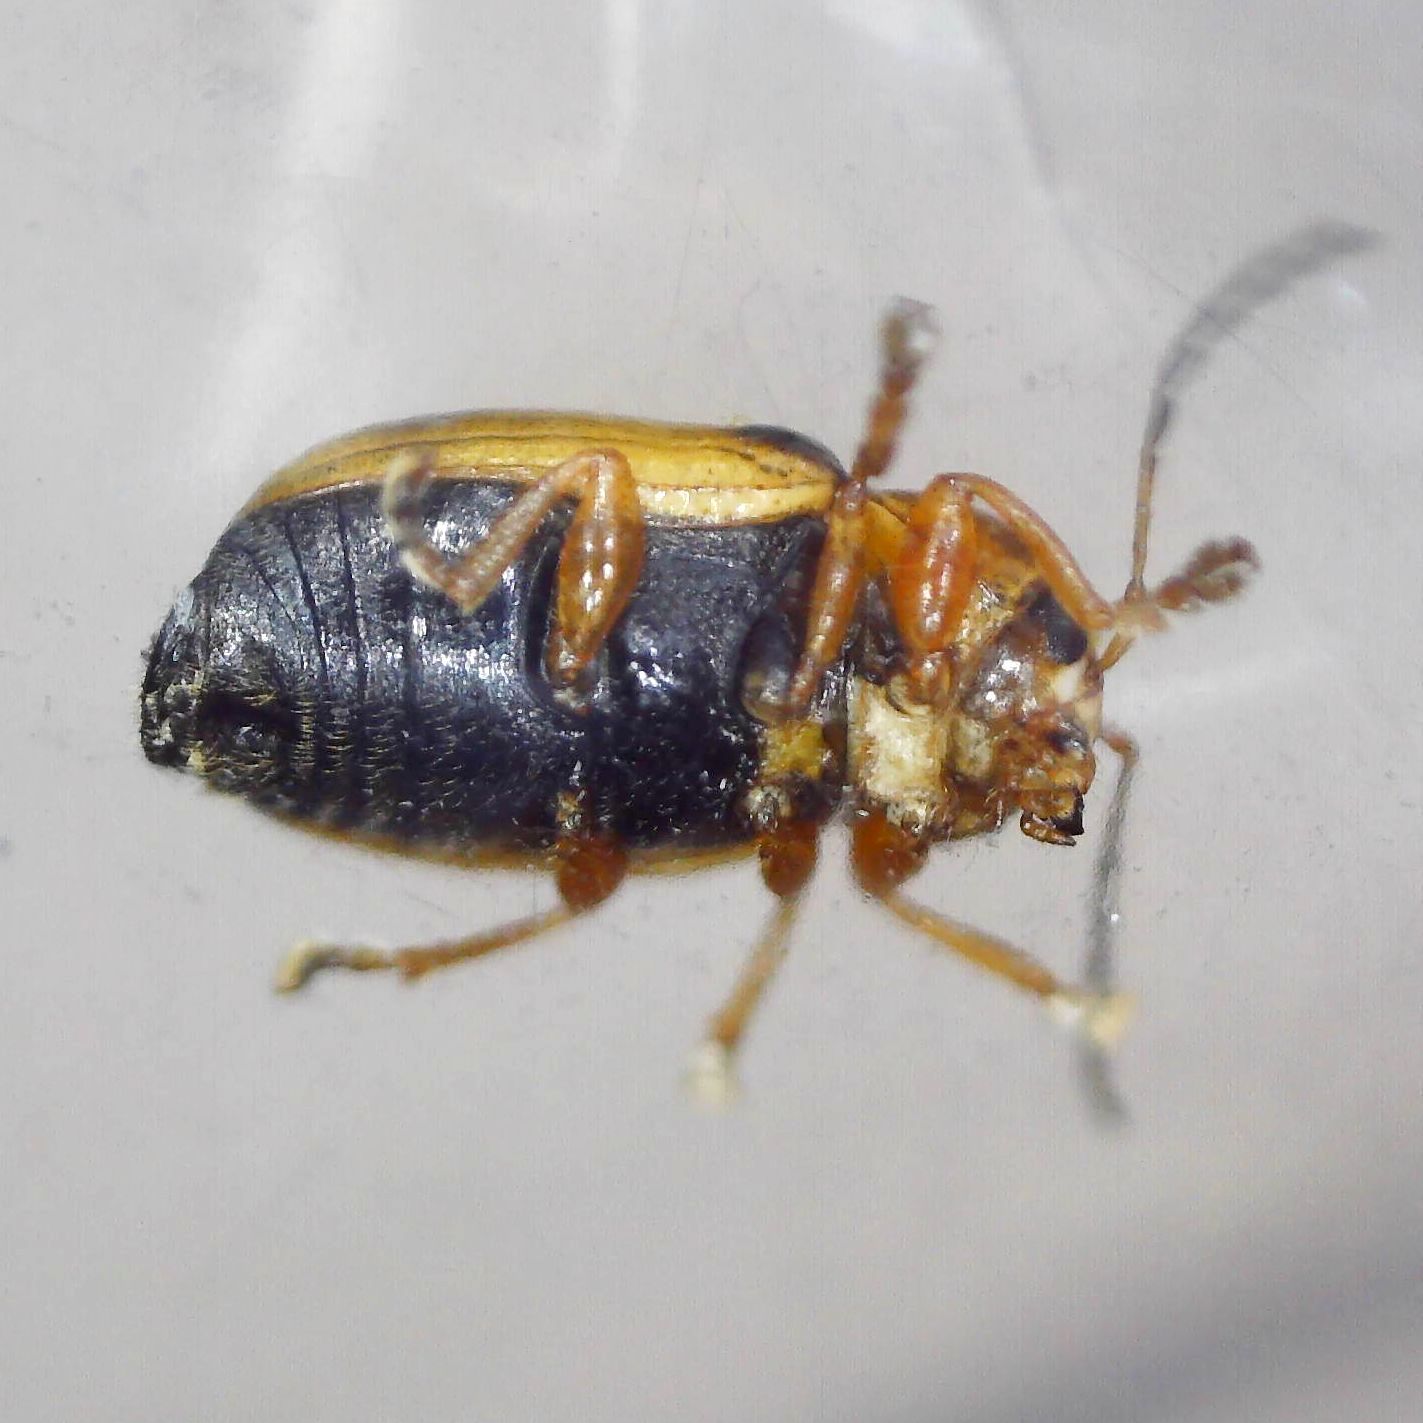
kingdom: Animalia
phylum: Arthropoda
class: Insecta
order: Coleoptera
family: Chrysomelidae
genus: Cryptocephalus
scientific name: Cryptocephalus pusillus
